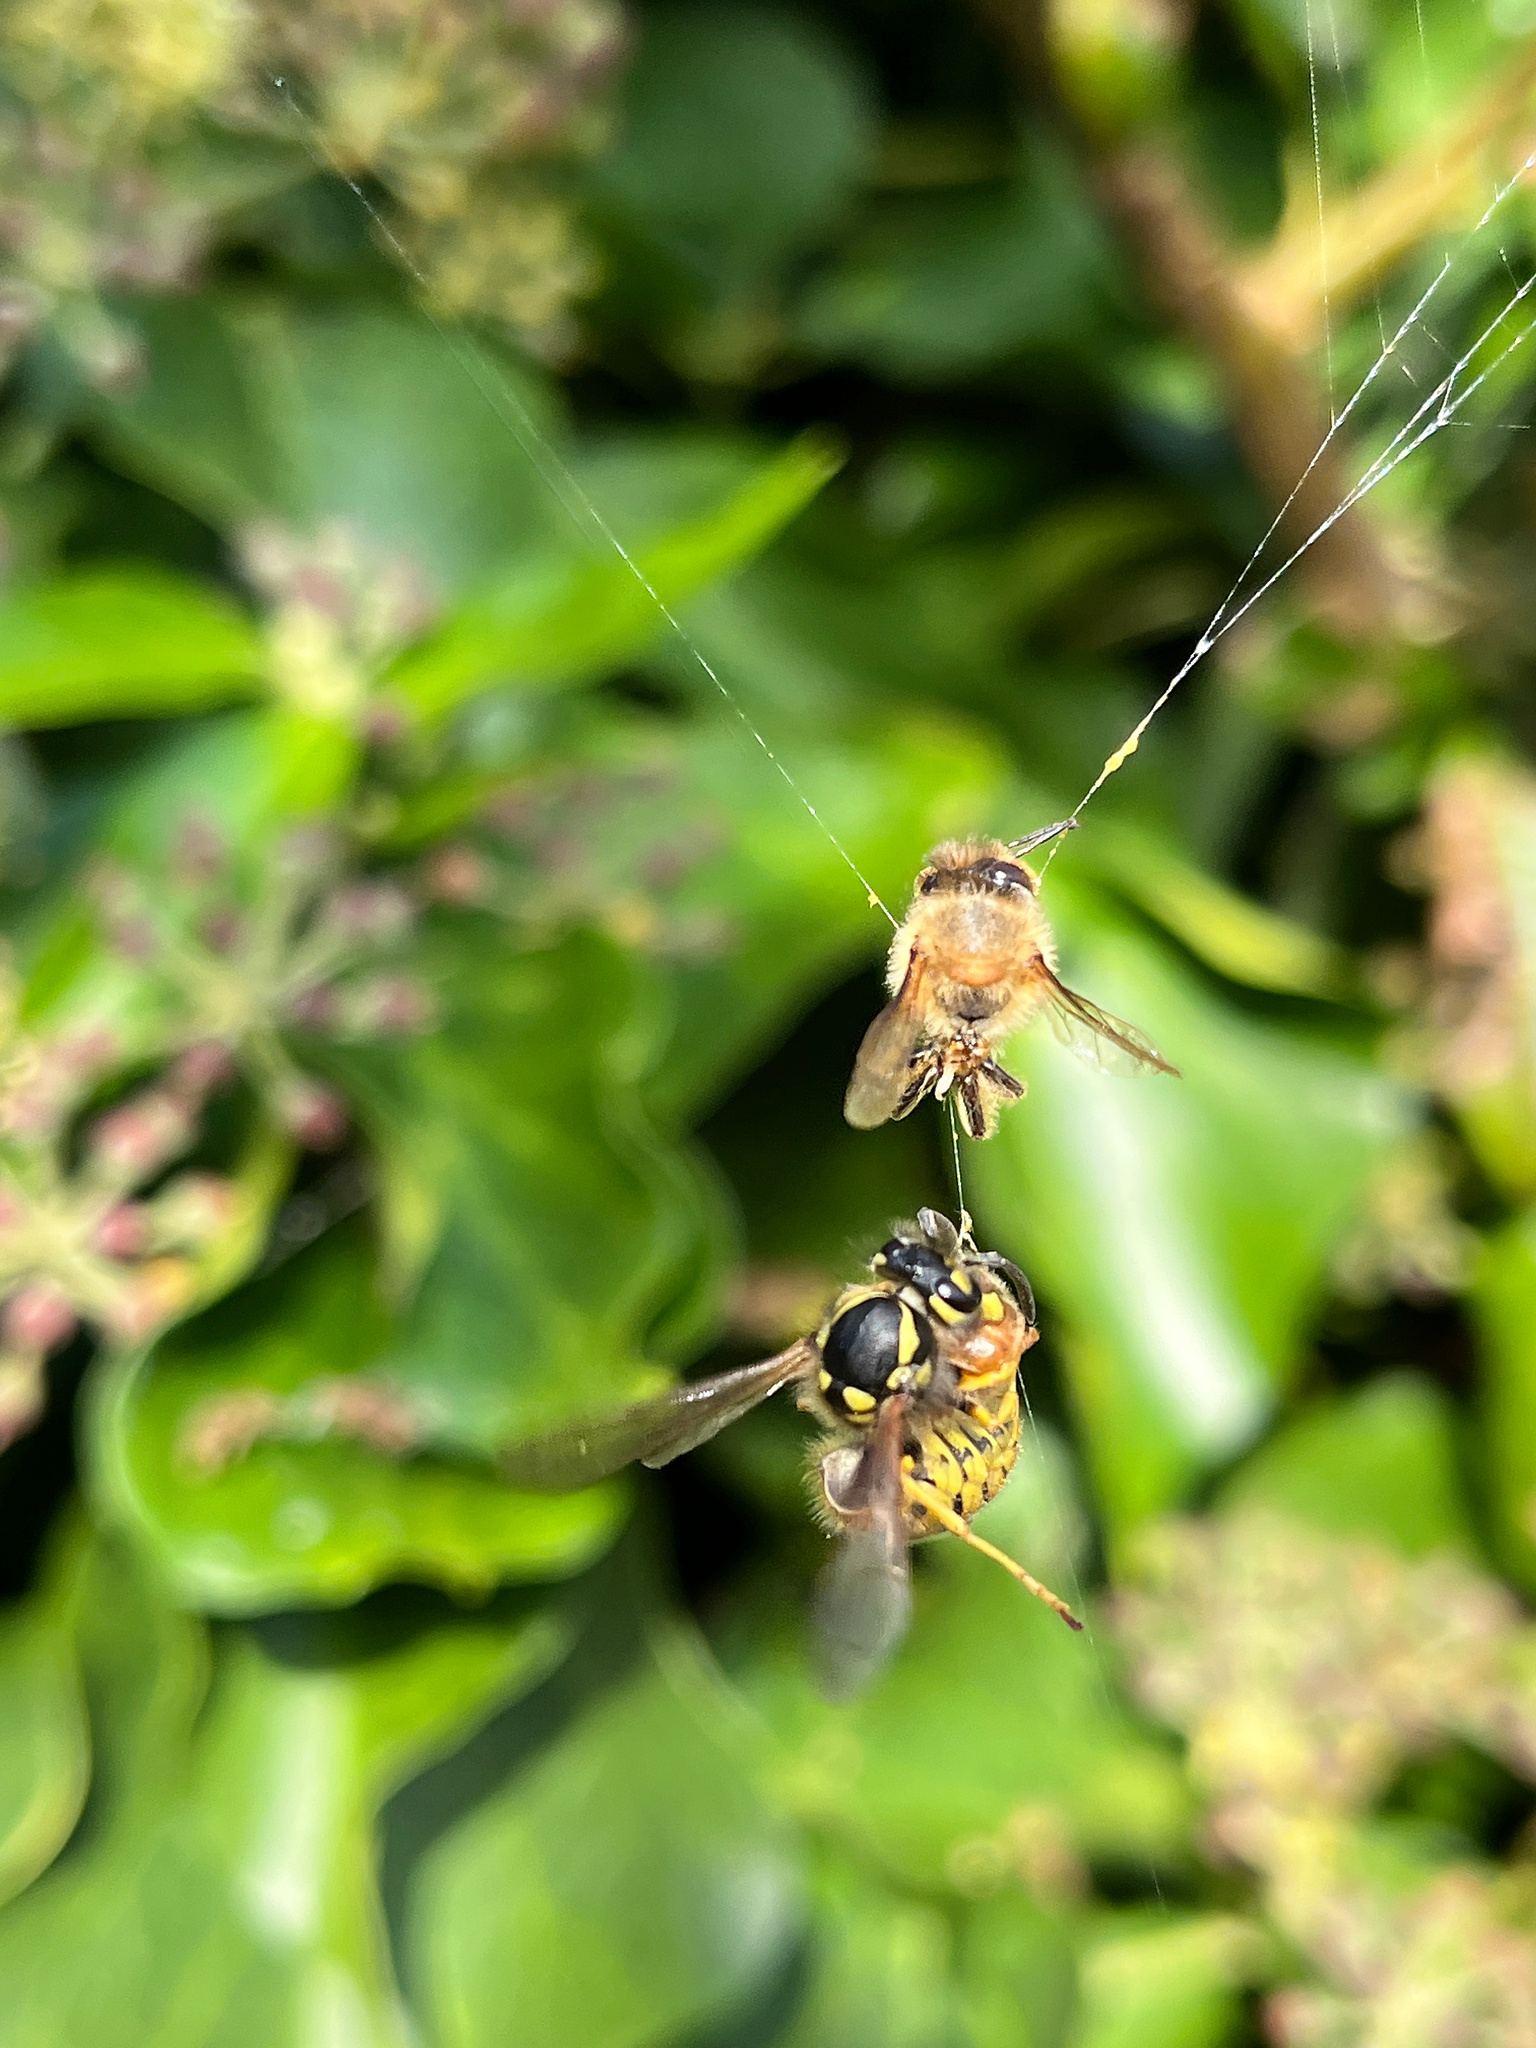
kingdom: Animalia
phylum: Arthropoda
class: Insecta
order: Hymenoptera
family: Vespidae
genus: Vespula
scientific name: Vespula germanica
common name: German wasp
